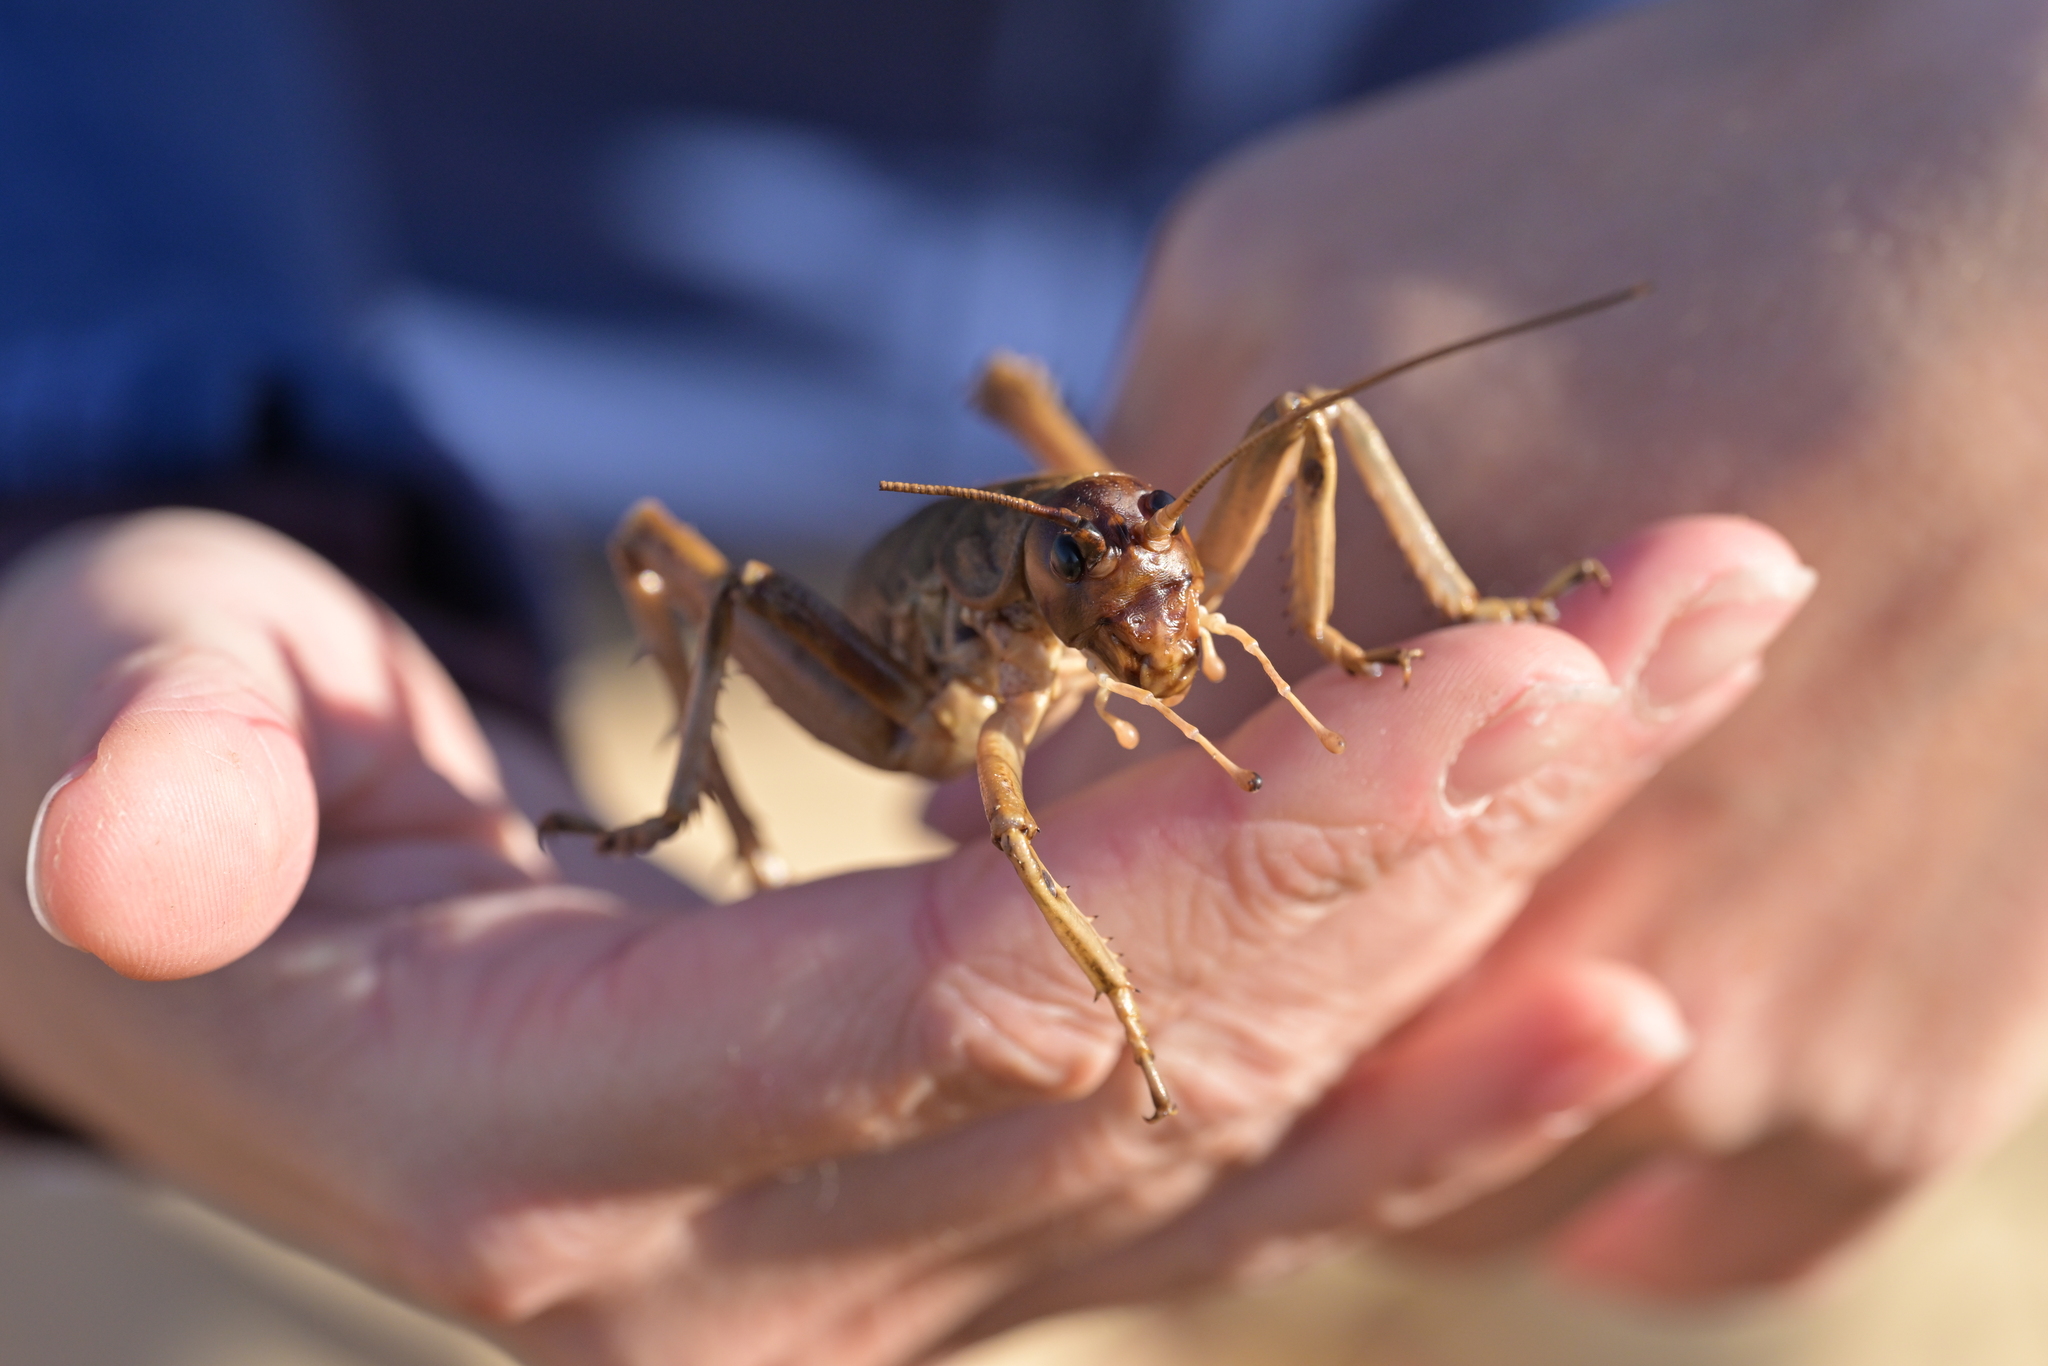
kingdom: Animalia
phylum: Arthropoda
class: Insecta
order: Orthoptera
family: Anostostomatidae
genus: Deinacrida
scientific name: Deinacrida rugosa
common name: Stephens island weta
